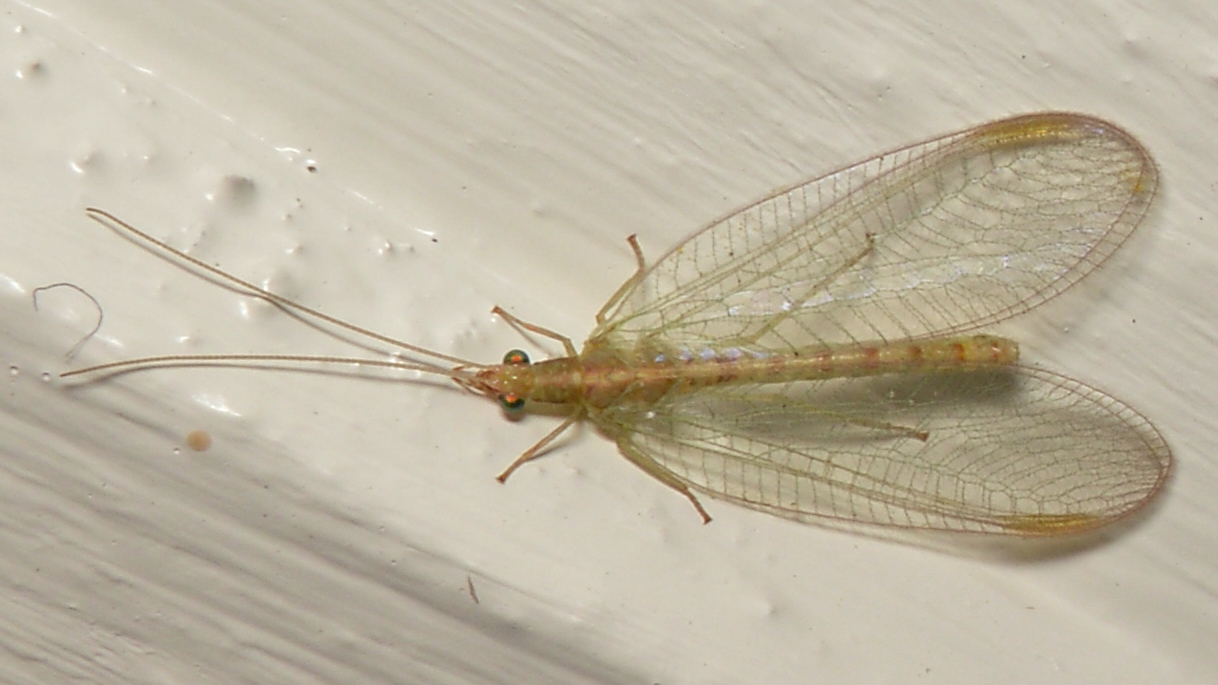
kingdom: Animalia
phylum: Arthropoda
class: Insecta
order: Neuroptera
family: Chrysopidae
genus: Chrysoperla
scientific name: Chrysoperla
